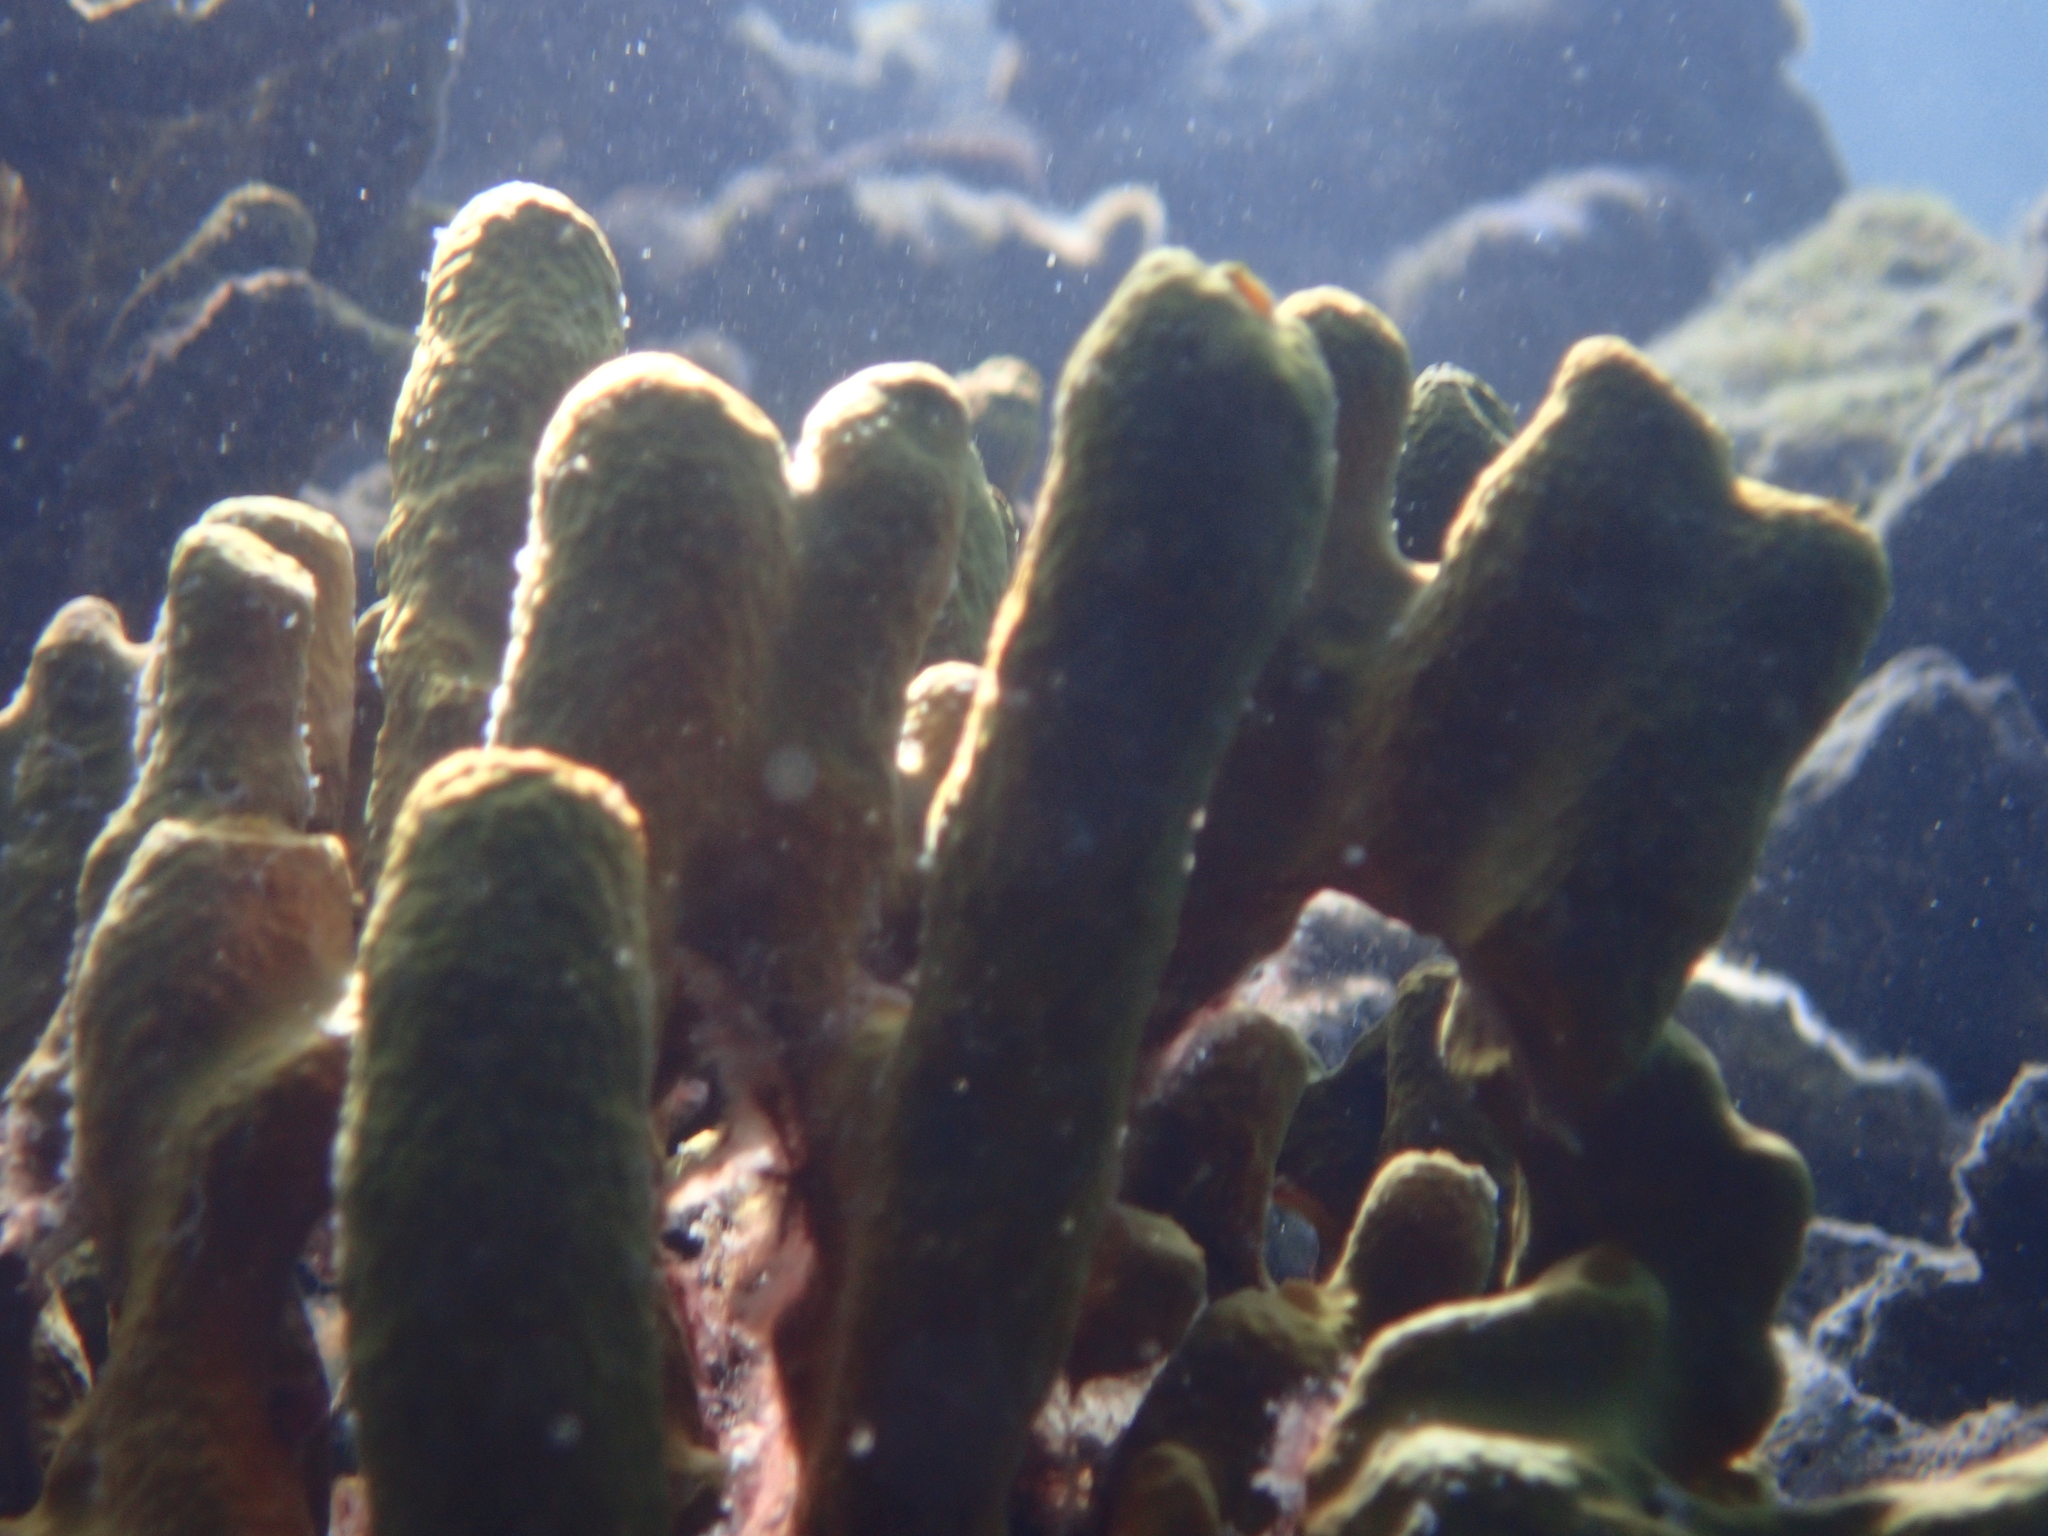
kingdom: Animalia
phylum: Porifera
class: Demospongiae
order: Verongiida
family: Aplysinidae
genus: Aplysina
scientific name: Aplysina aerophoba
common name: Aureate sponge
